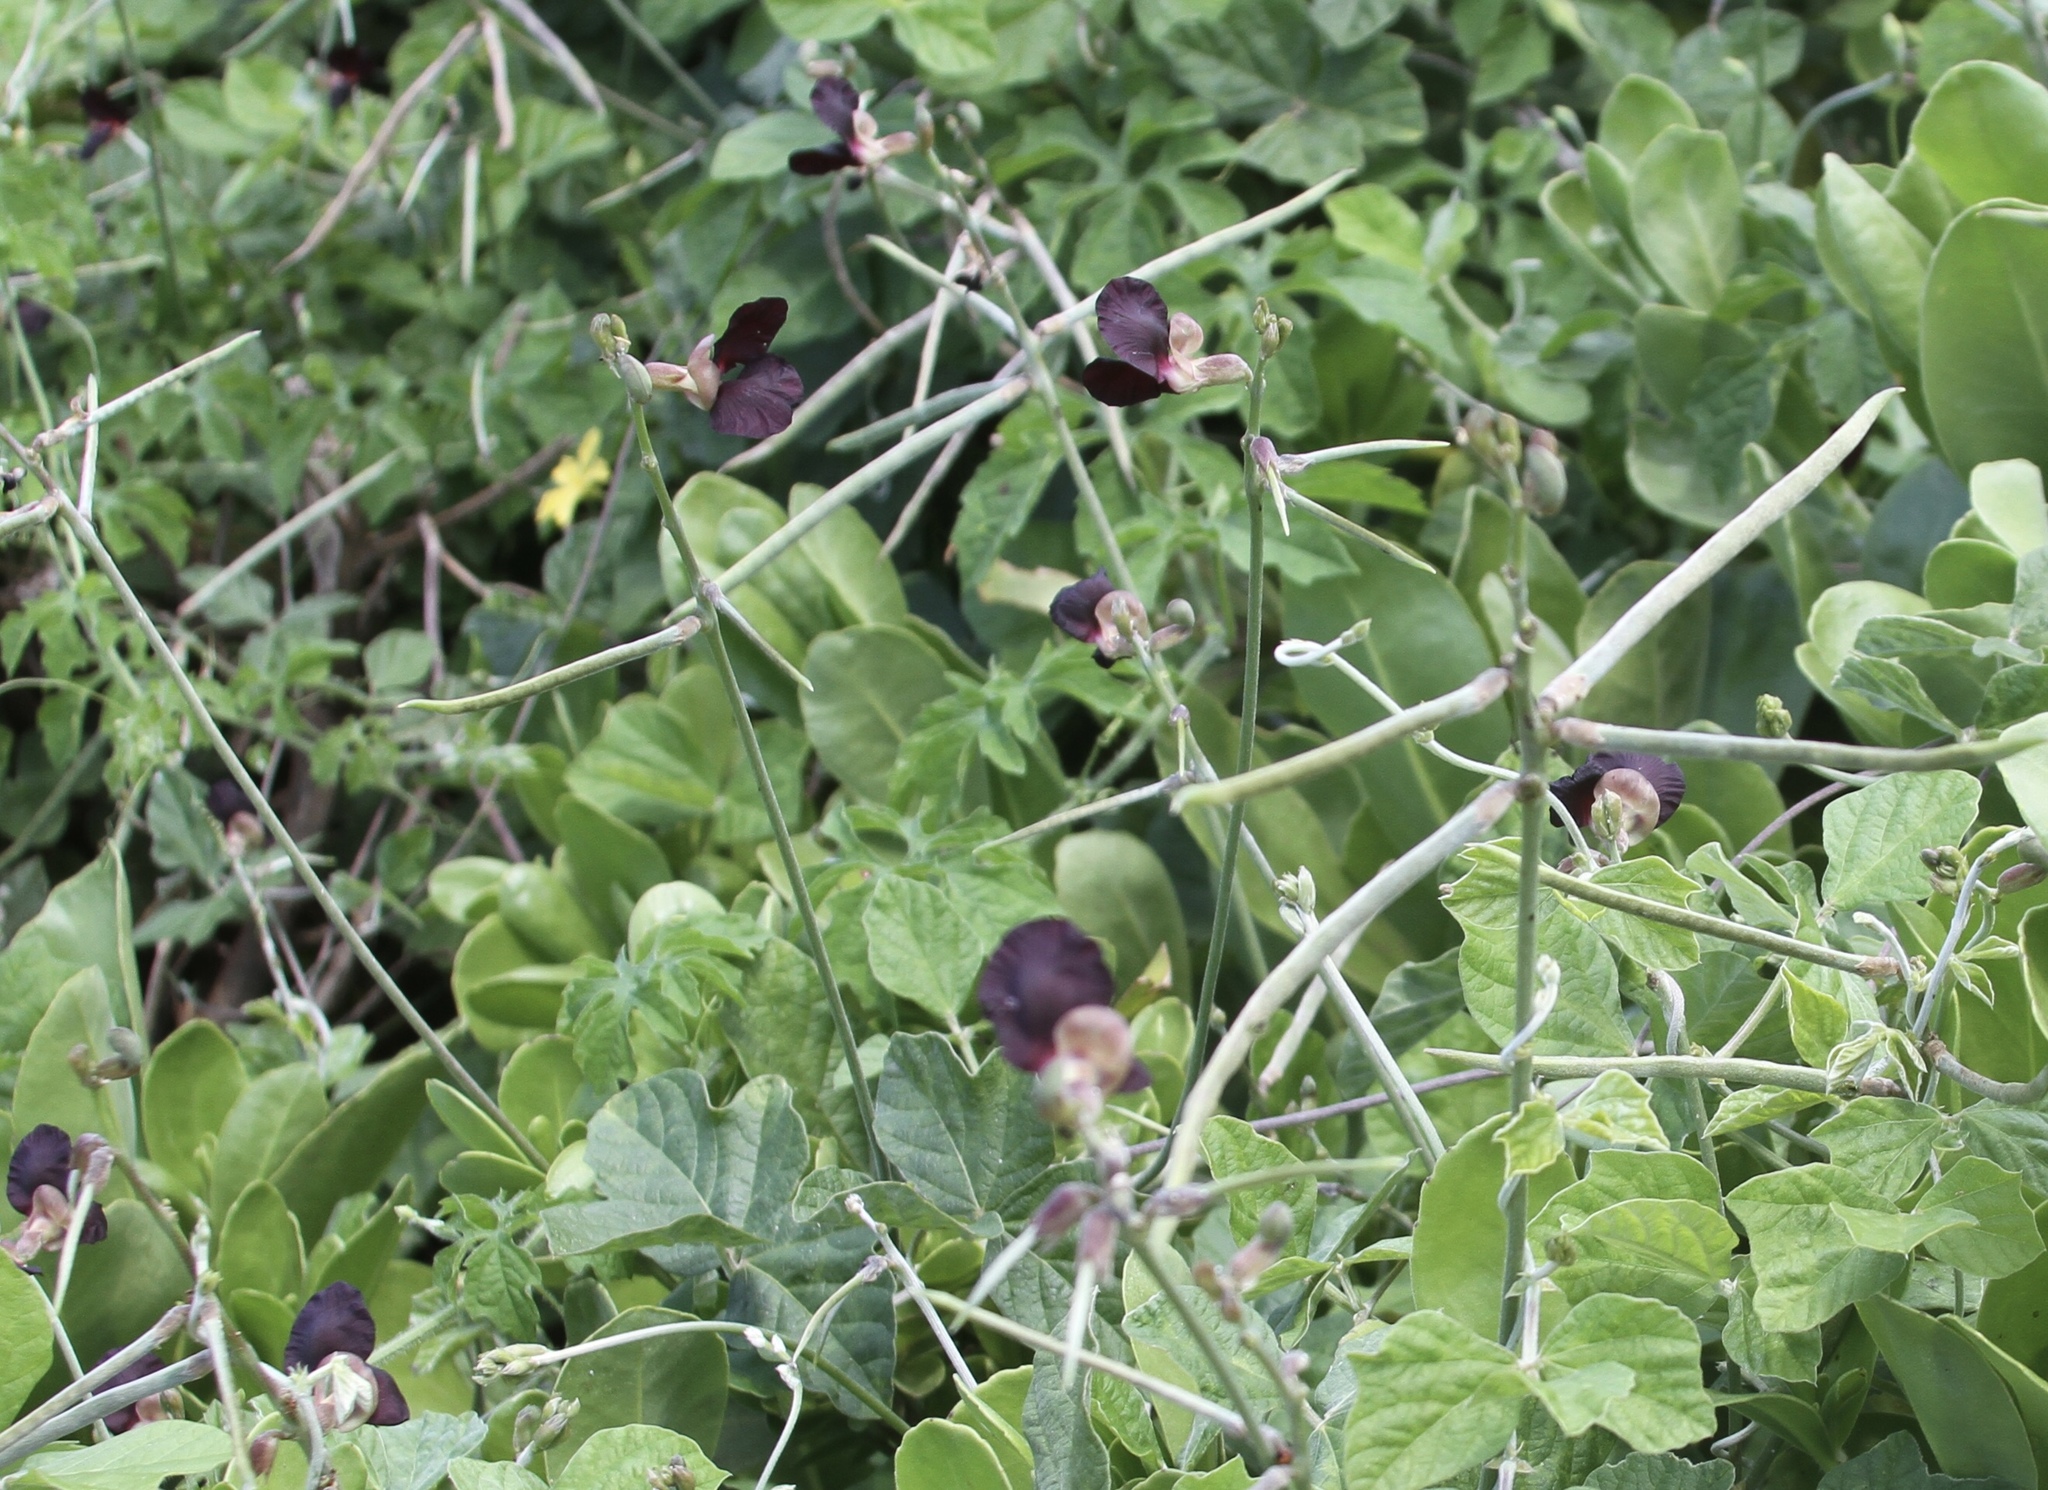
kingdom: Plantae
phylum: Tracheophyta
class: Magnoliopsida
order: Fabales
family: Fabaceae
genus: Macroptilium
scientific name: Macroptilium atropurpureum
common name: Purple bushbean
